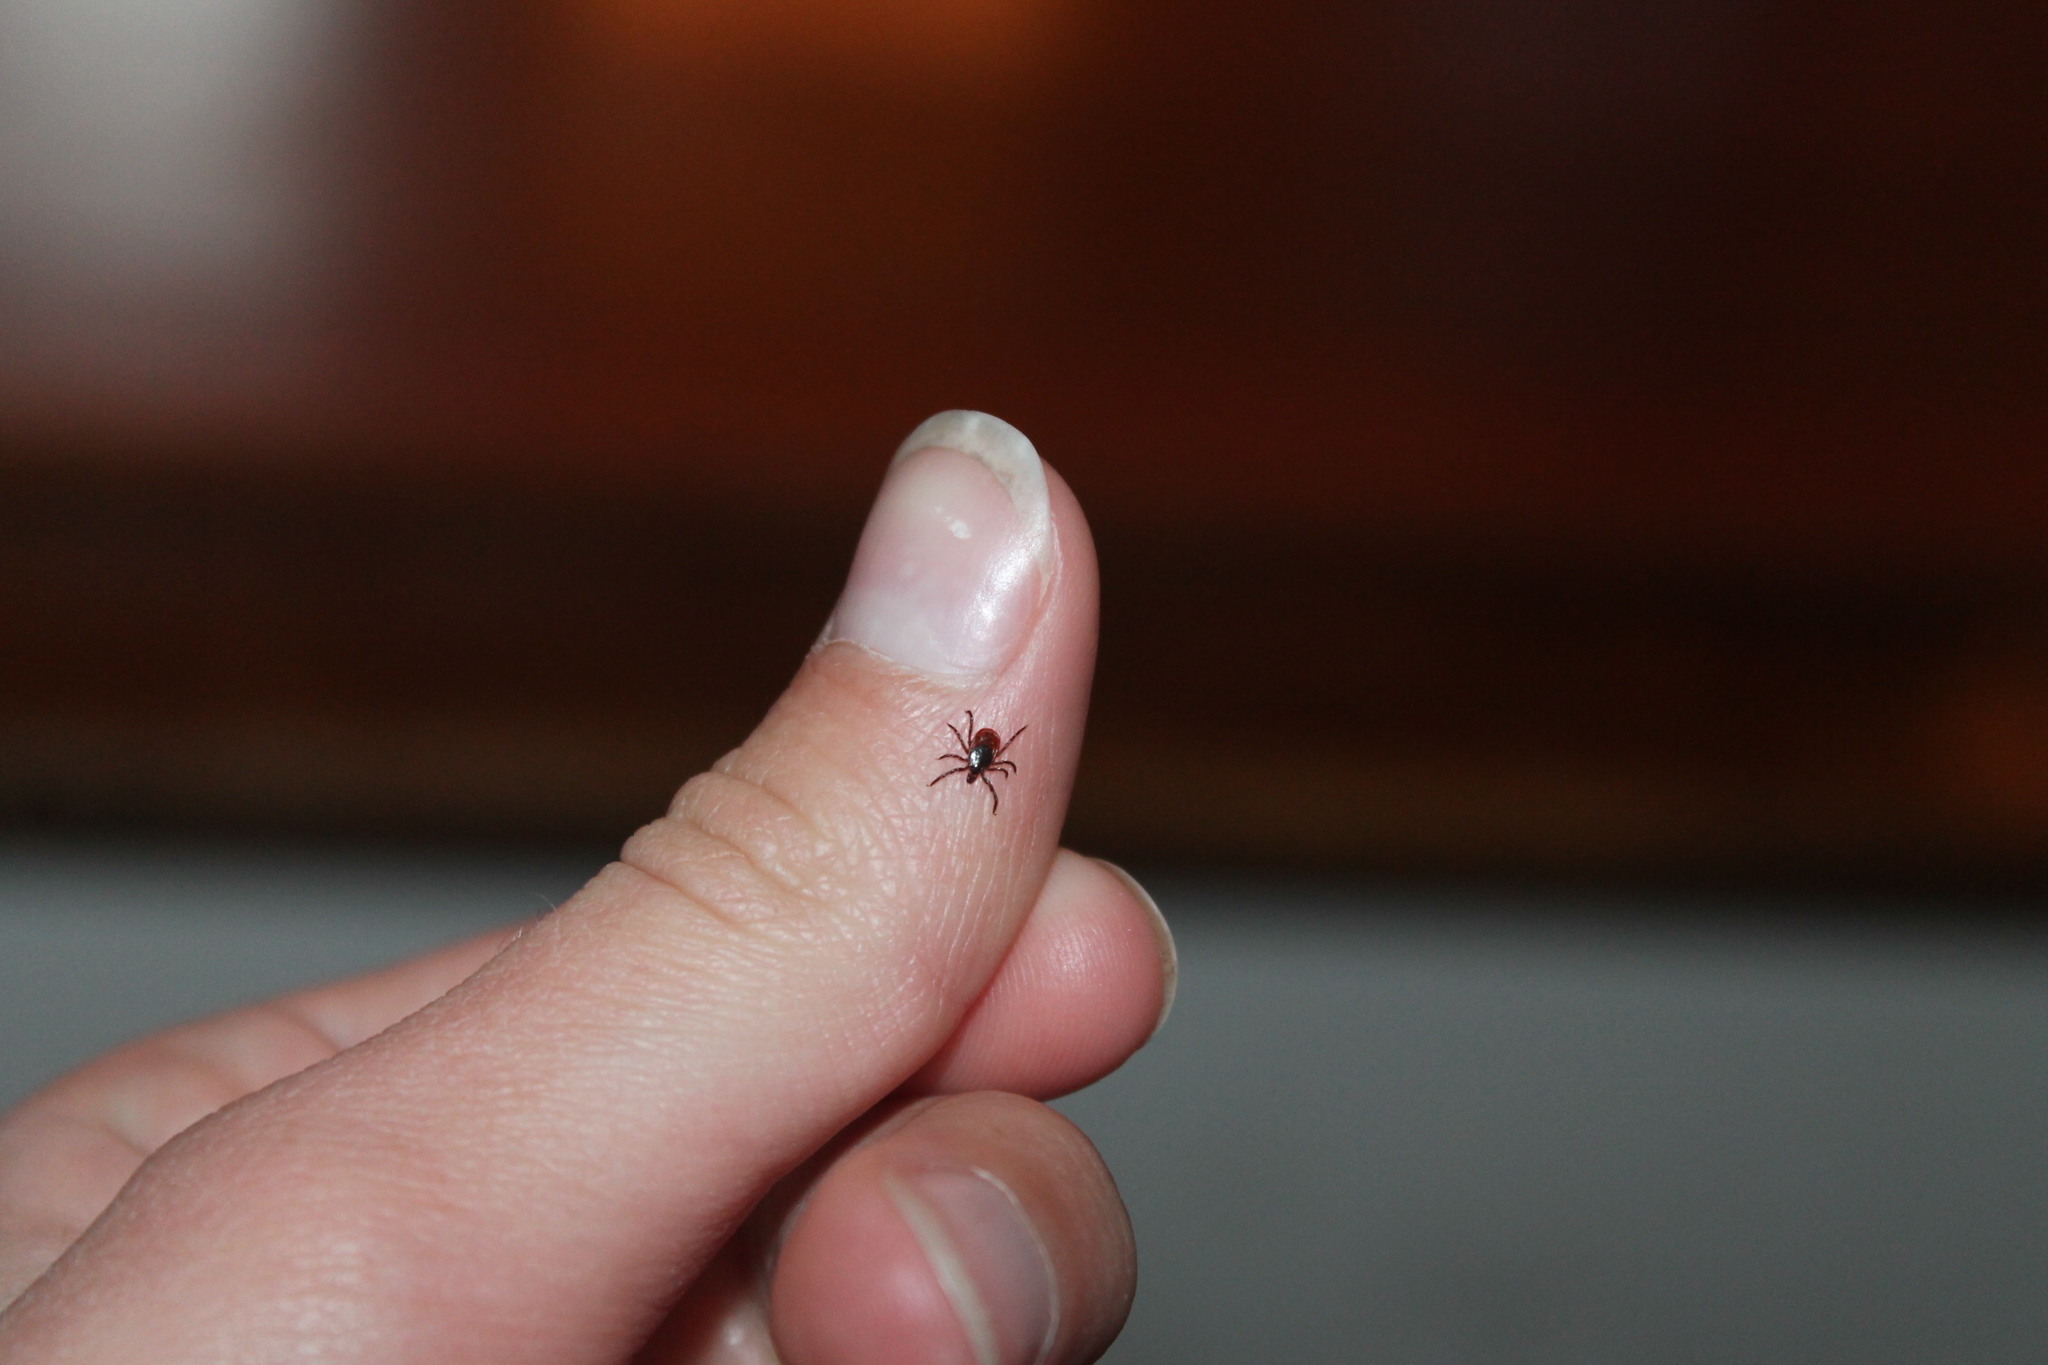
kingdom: Animalia
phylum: Arthropoda
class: Arachnida
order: Ixodida
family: Ixodidae
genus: Ixodes
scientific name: Ixodes scapularis
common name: Black legged tick
